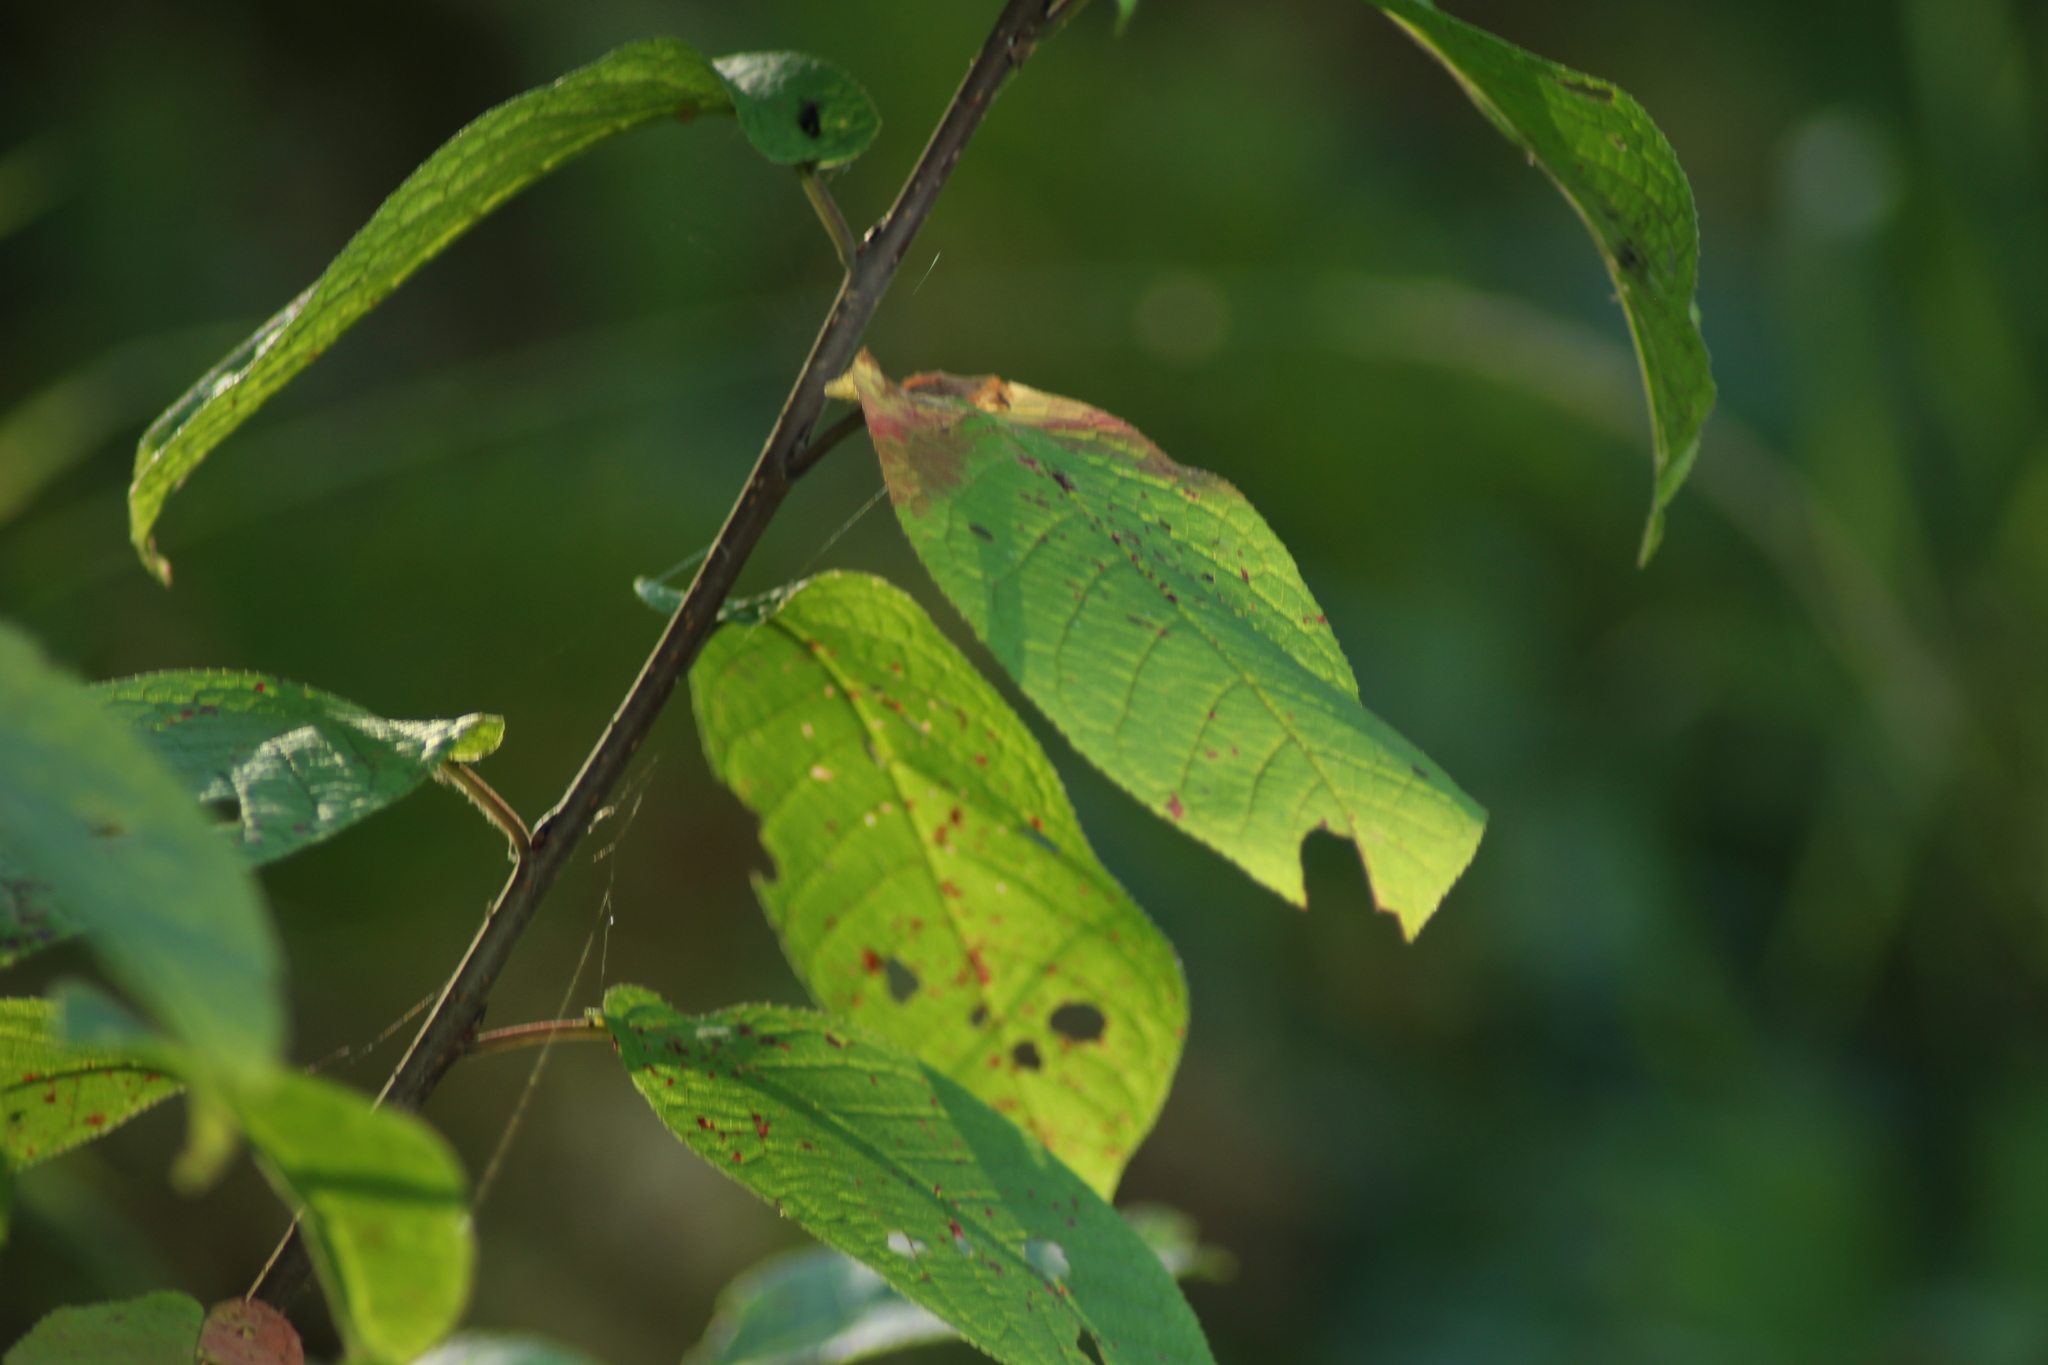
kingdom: Plantae
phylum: Tracheophyta
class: Magnoliopsida
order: Rosales
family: Rosaceae
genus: Prunus
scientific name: Prunus padus
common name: Bird cherry
